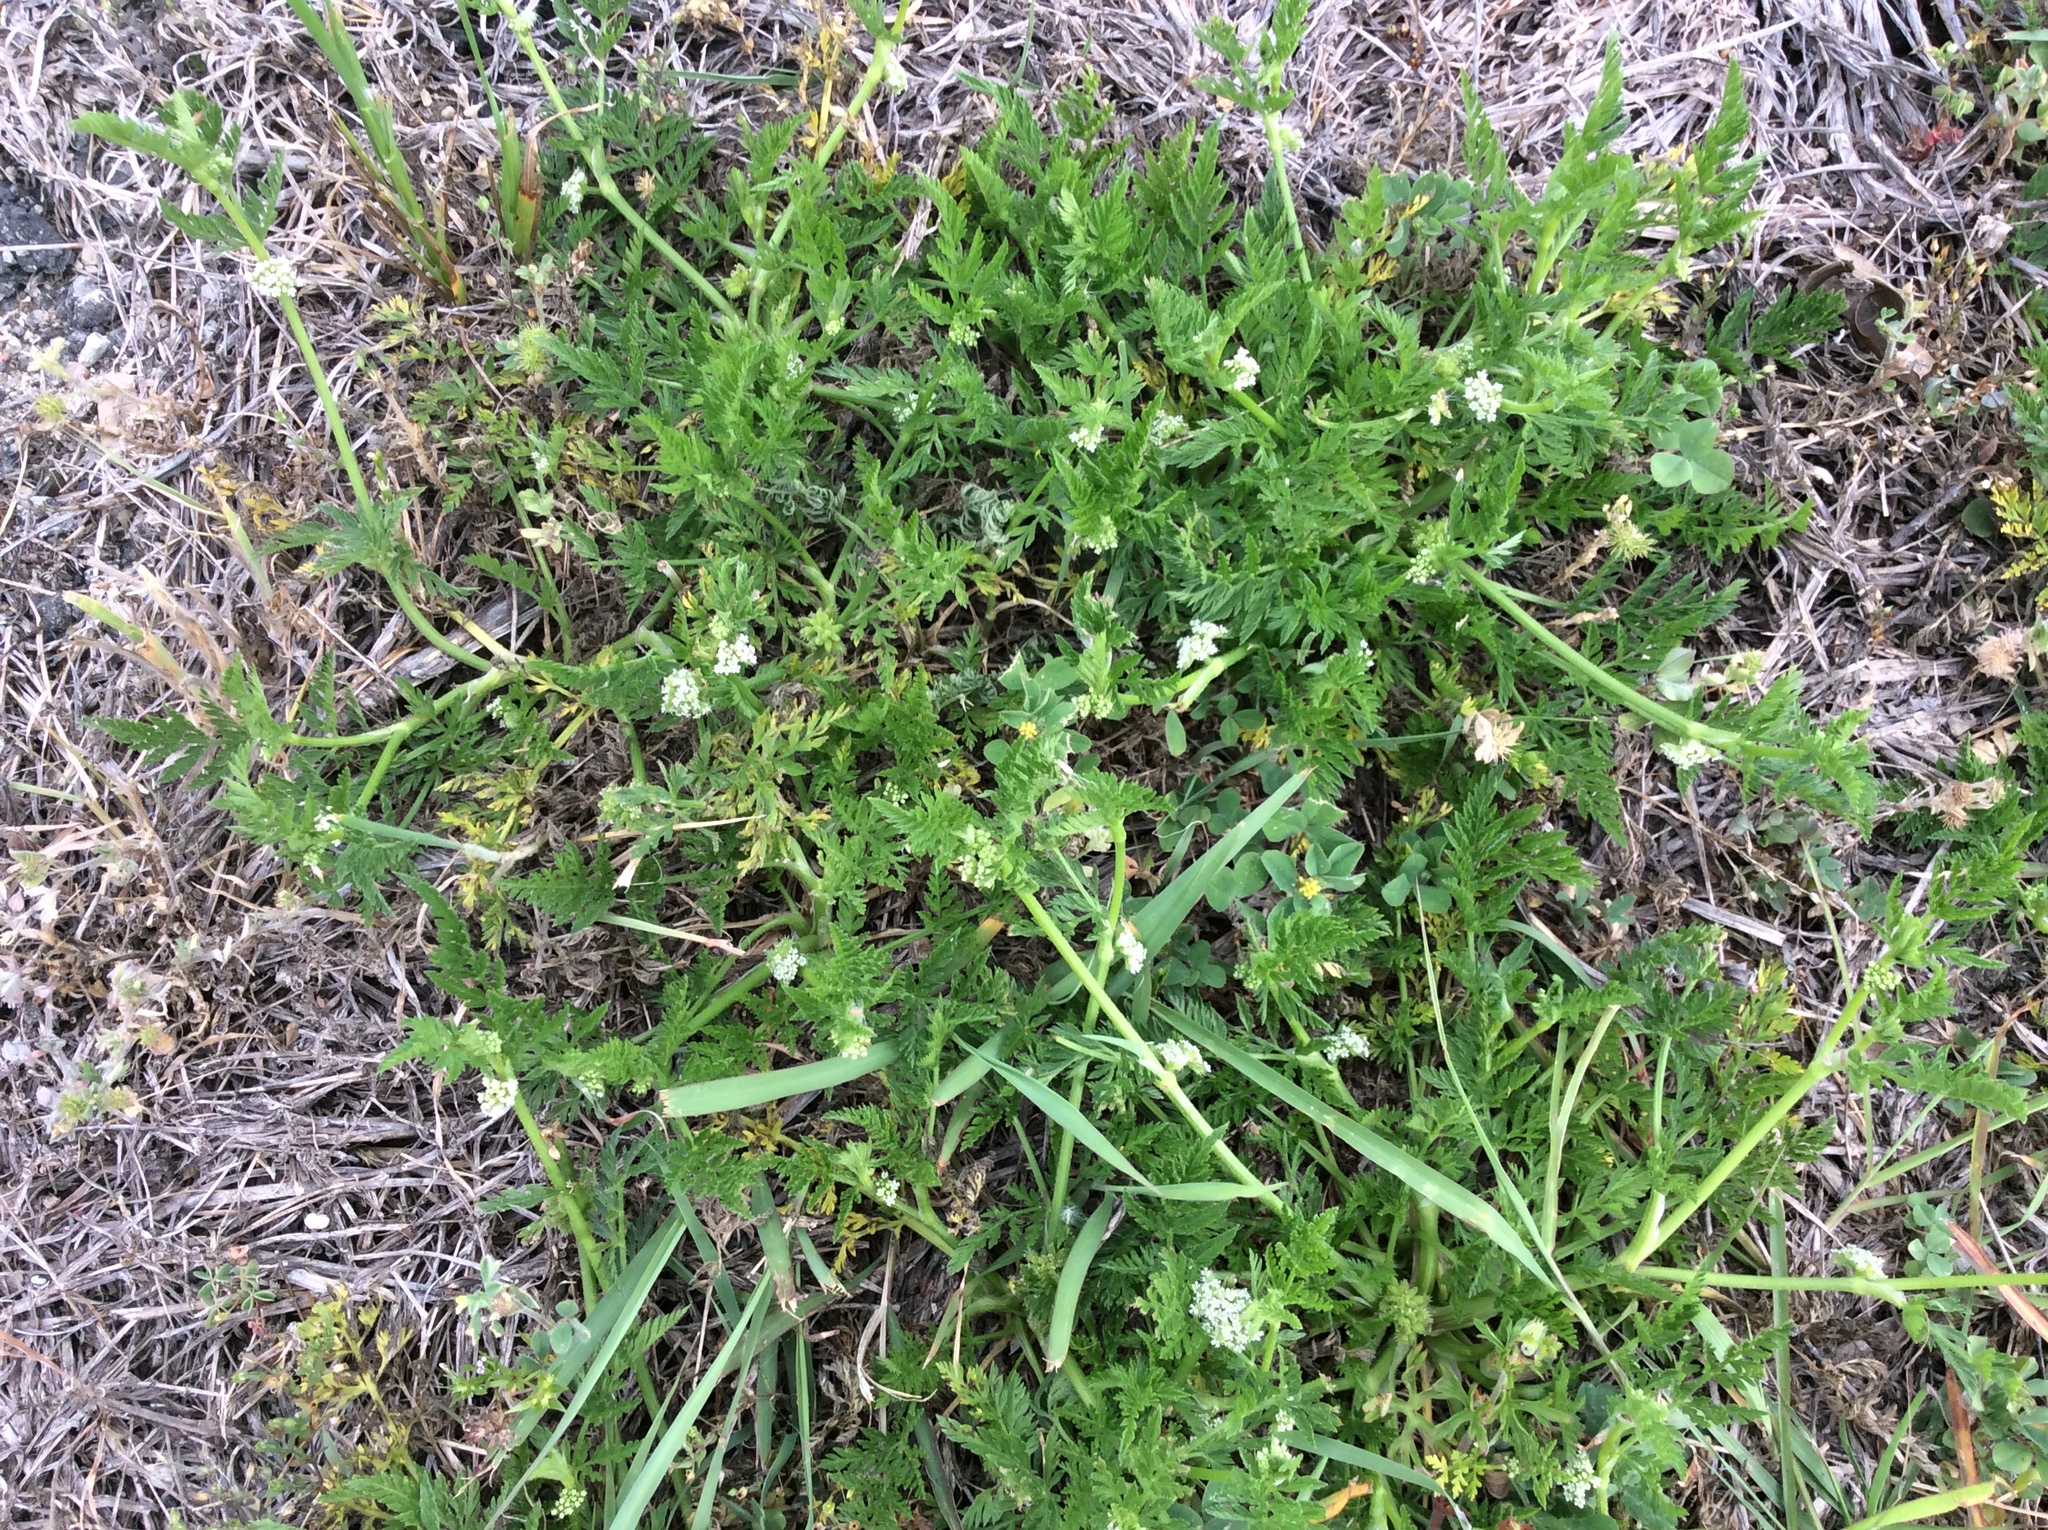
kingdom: Plantae
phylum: Tracheophyta
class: Magnoliopsida
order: Apiales
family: Apiaceae
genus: Torilis
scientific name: Torilis nodosa
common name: Knotted hedge-parsley
